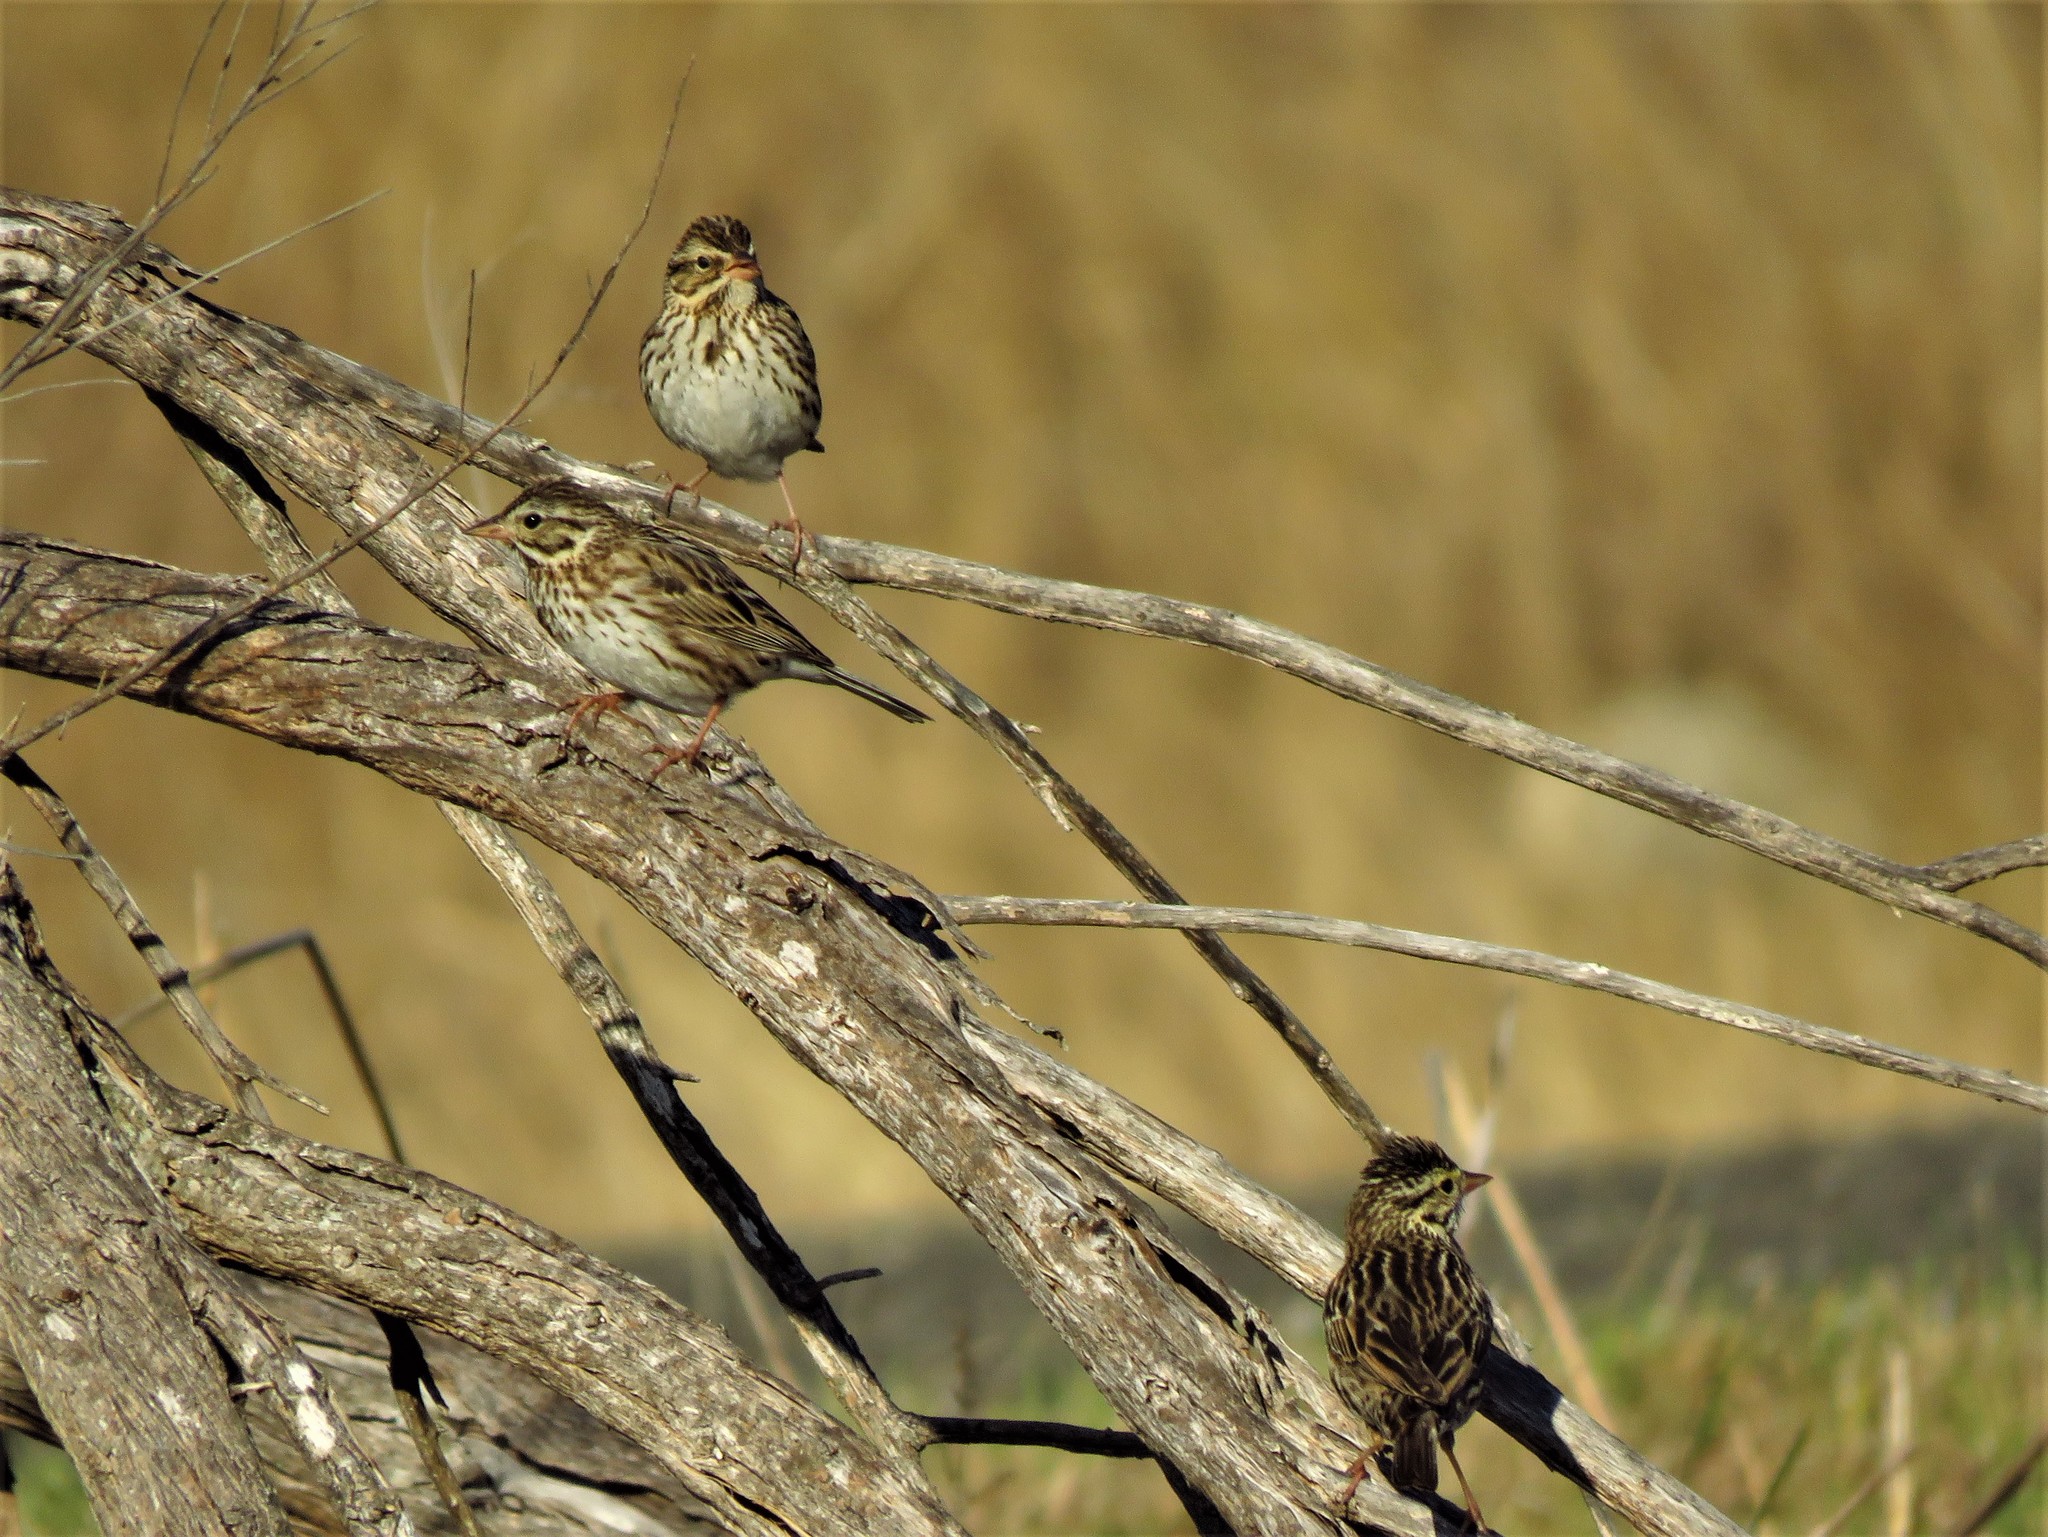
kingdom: Animalia
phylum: Chordata
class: Aves
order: Passeriformes
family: Passerellidae
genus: Passerculus
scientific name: Passerculus sandwichensis
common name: Savannah sparrow
